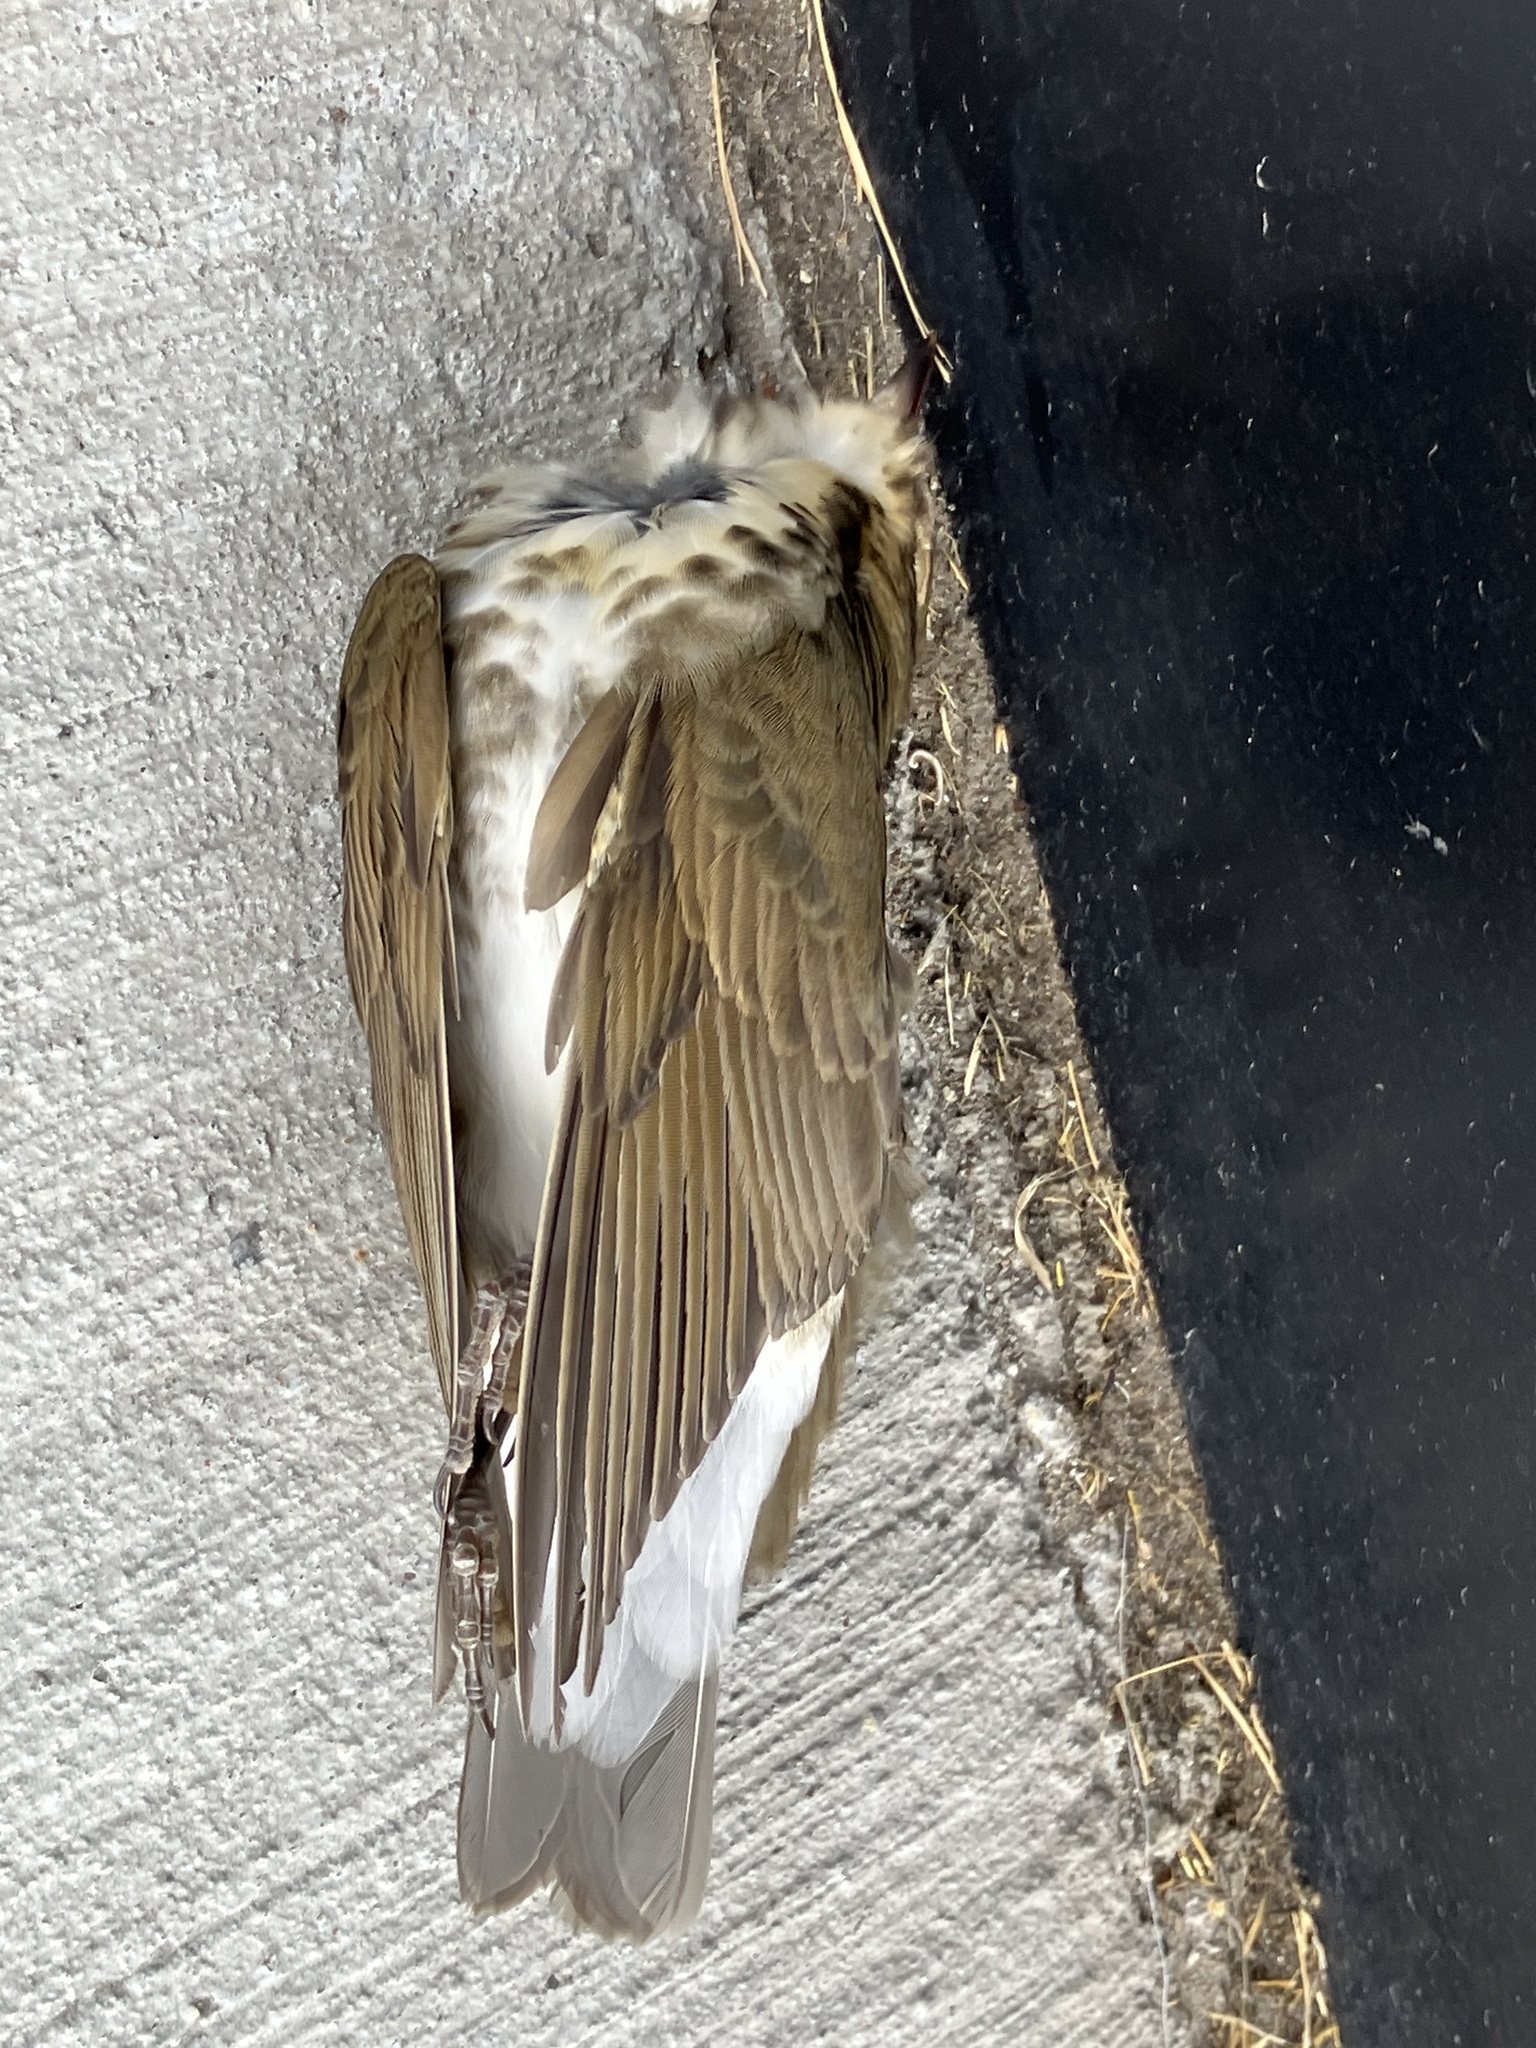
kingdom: Animalia
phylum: Chordata
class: Aves
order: Passeriformes
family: Turdidae
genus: Catharus
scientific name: Catharus ustulatus
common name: Swainson's thrush
